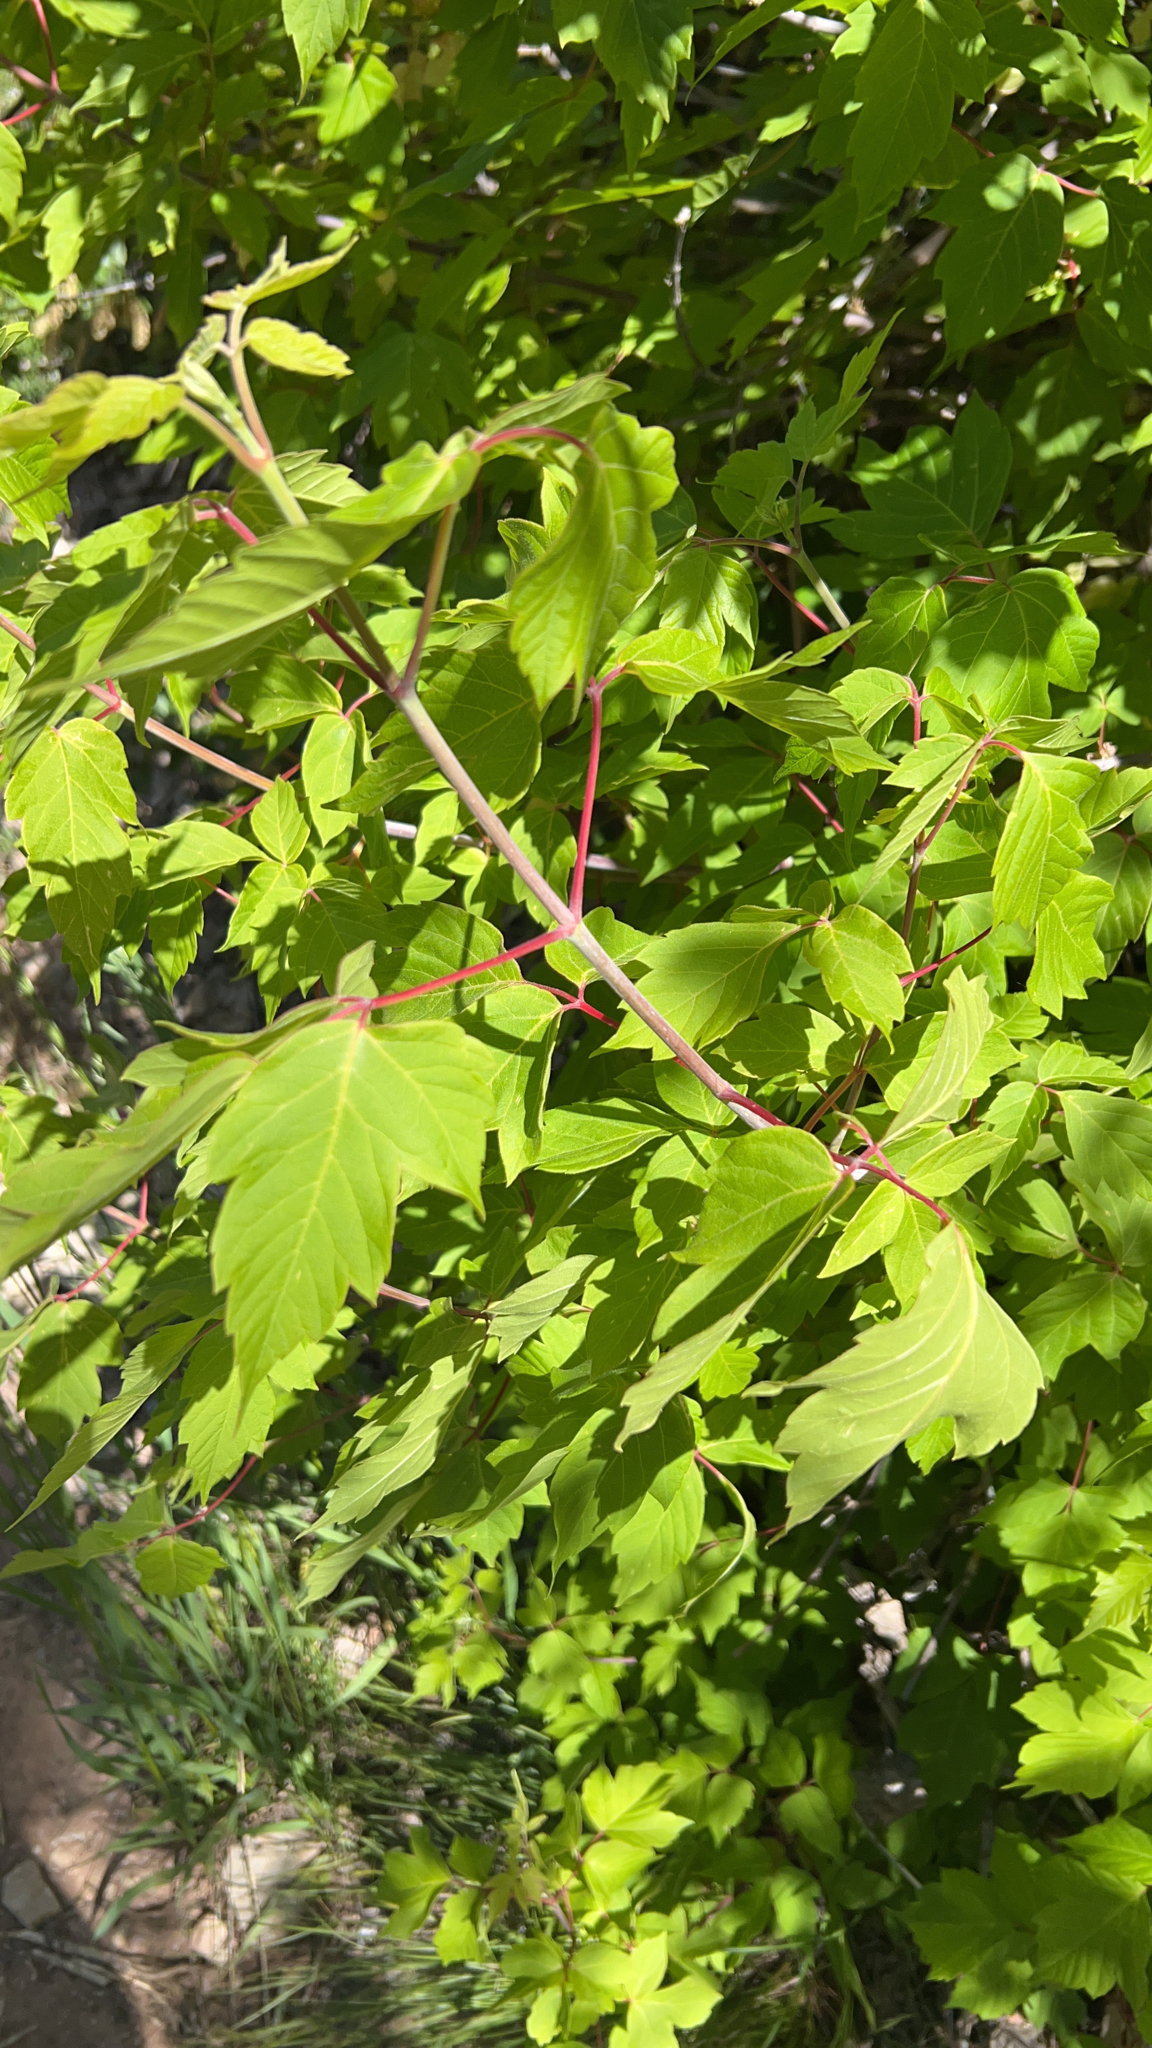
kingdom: Plantae
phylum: Tracheophyta
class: Magnoliopsida
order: Sapindales
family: Sapindaceae
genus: Acer
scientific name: Acer negundo
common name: Ashleaf maple
